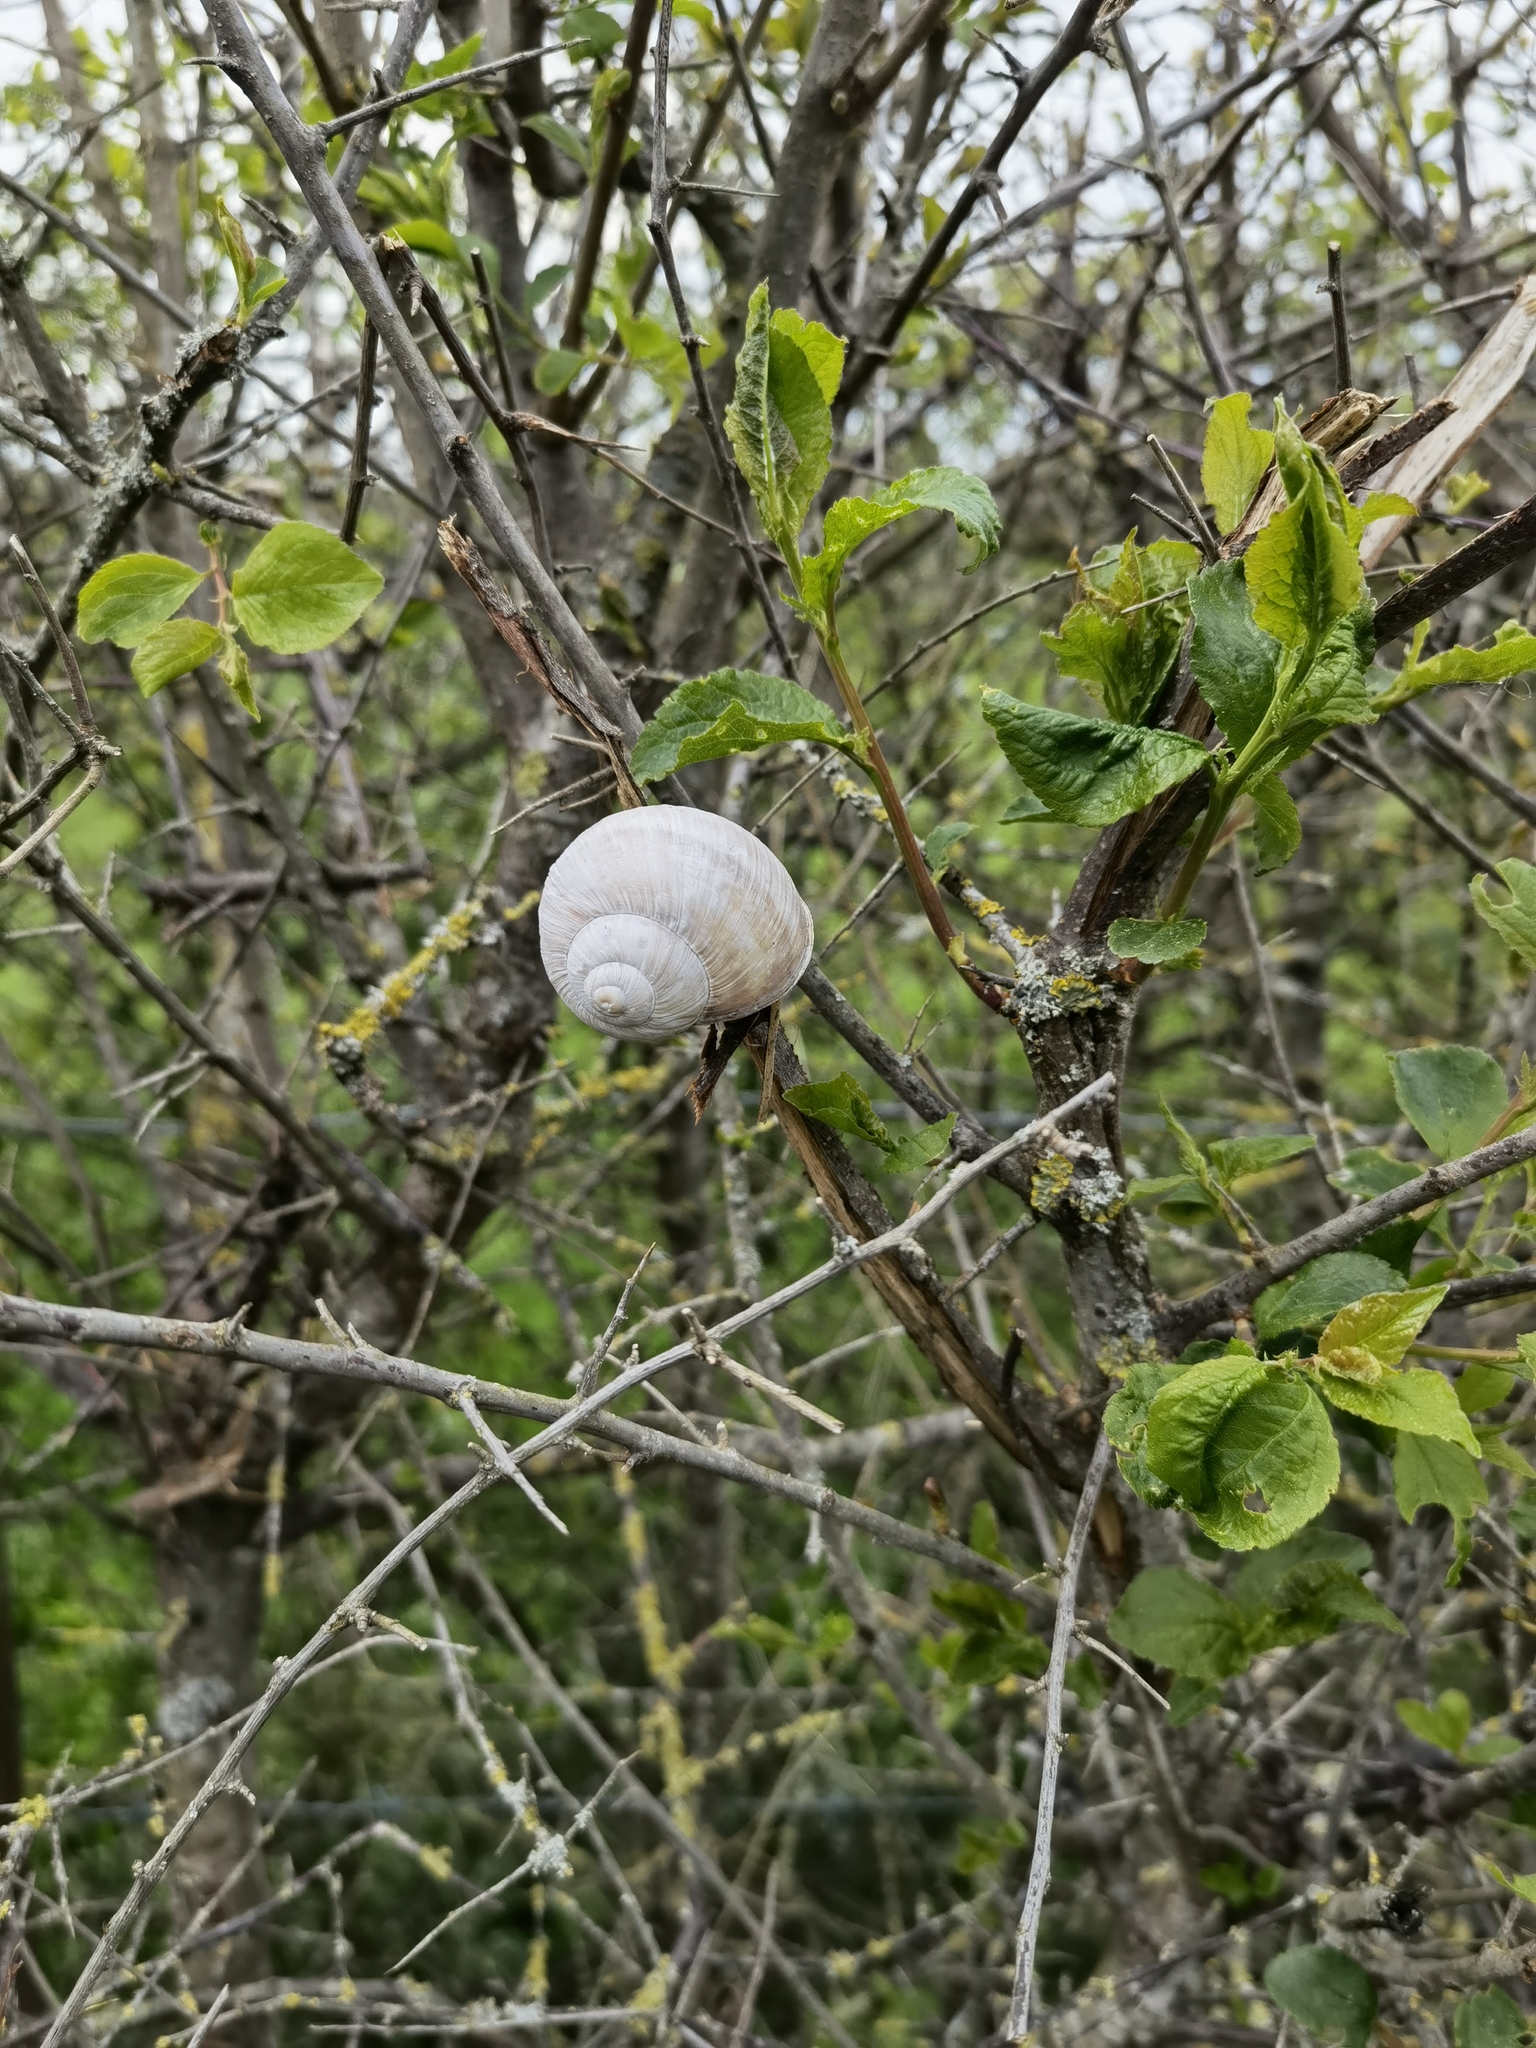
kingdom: Animalia
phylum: Mollusca
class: Gastropoda
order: Stylommatophora
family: Helicidae
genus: Helix
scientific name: Helix pomatia
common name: Roman snail
